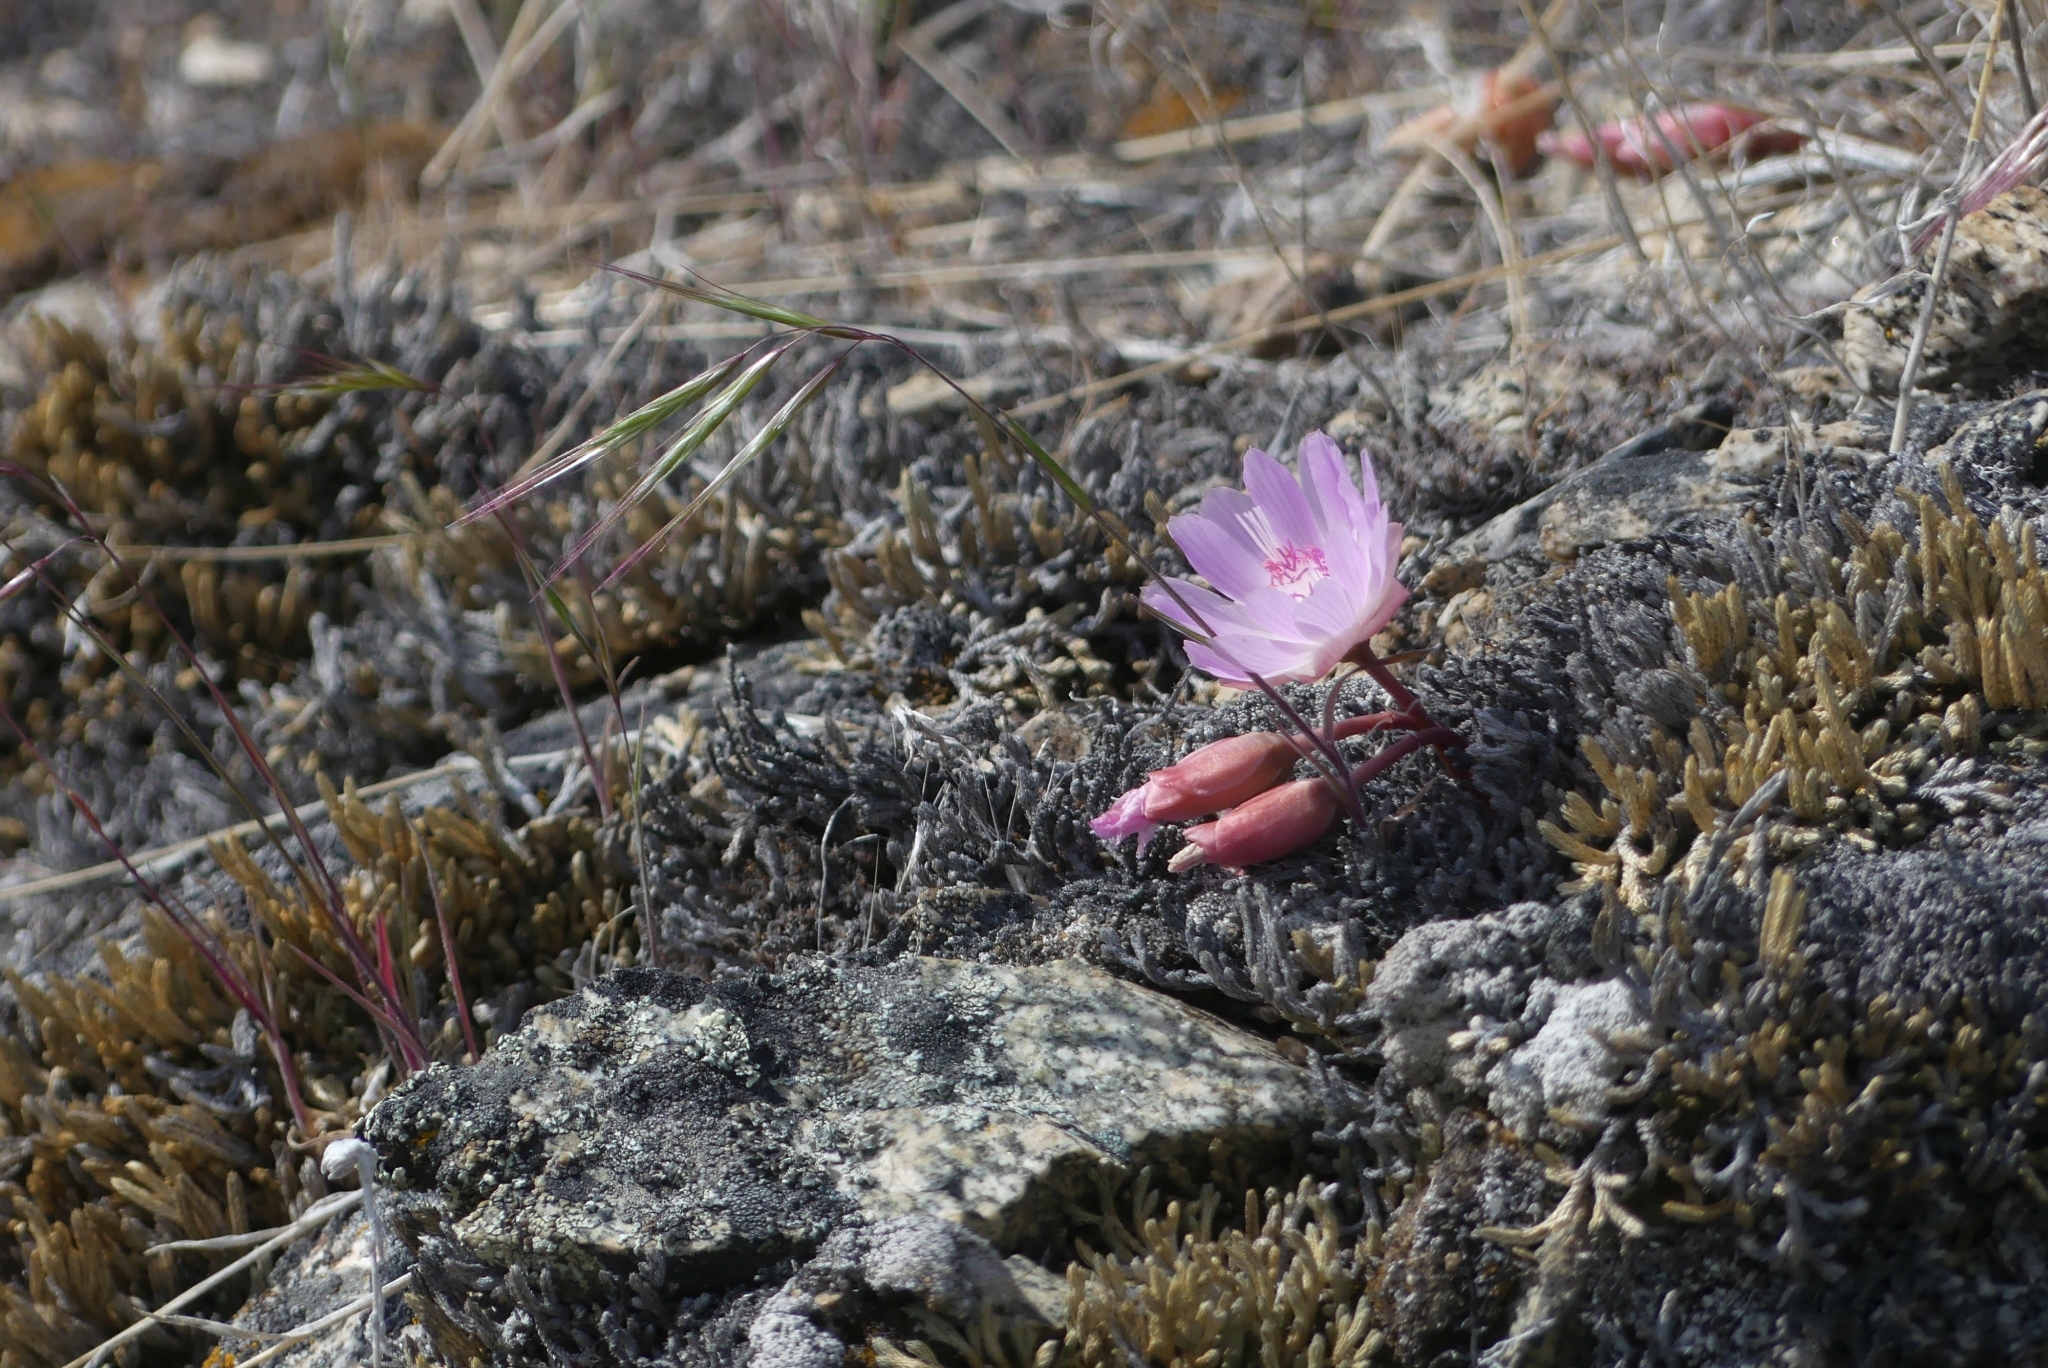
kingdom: Plantae
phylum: Tracheophyta
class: Magnoliopsida
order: Caryophyllales
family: Montiaceae
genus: Lewisia
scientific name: Lewisia rediviva
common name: Bitter-root
